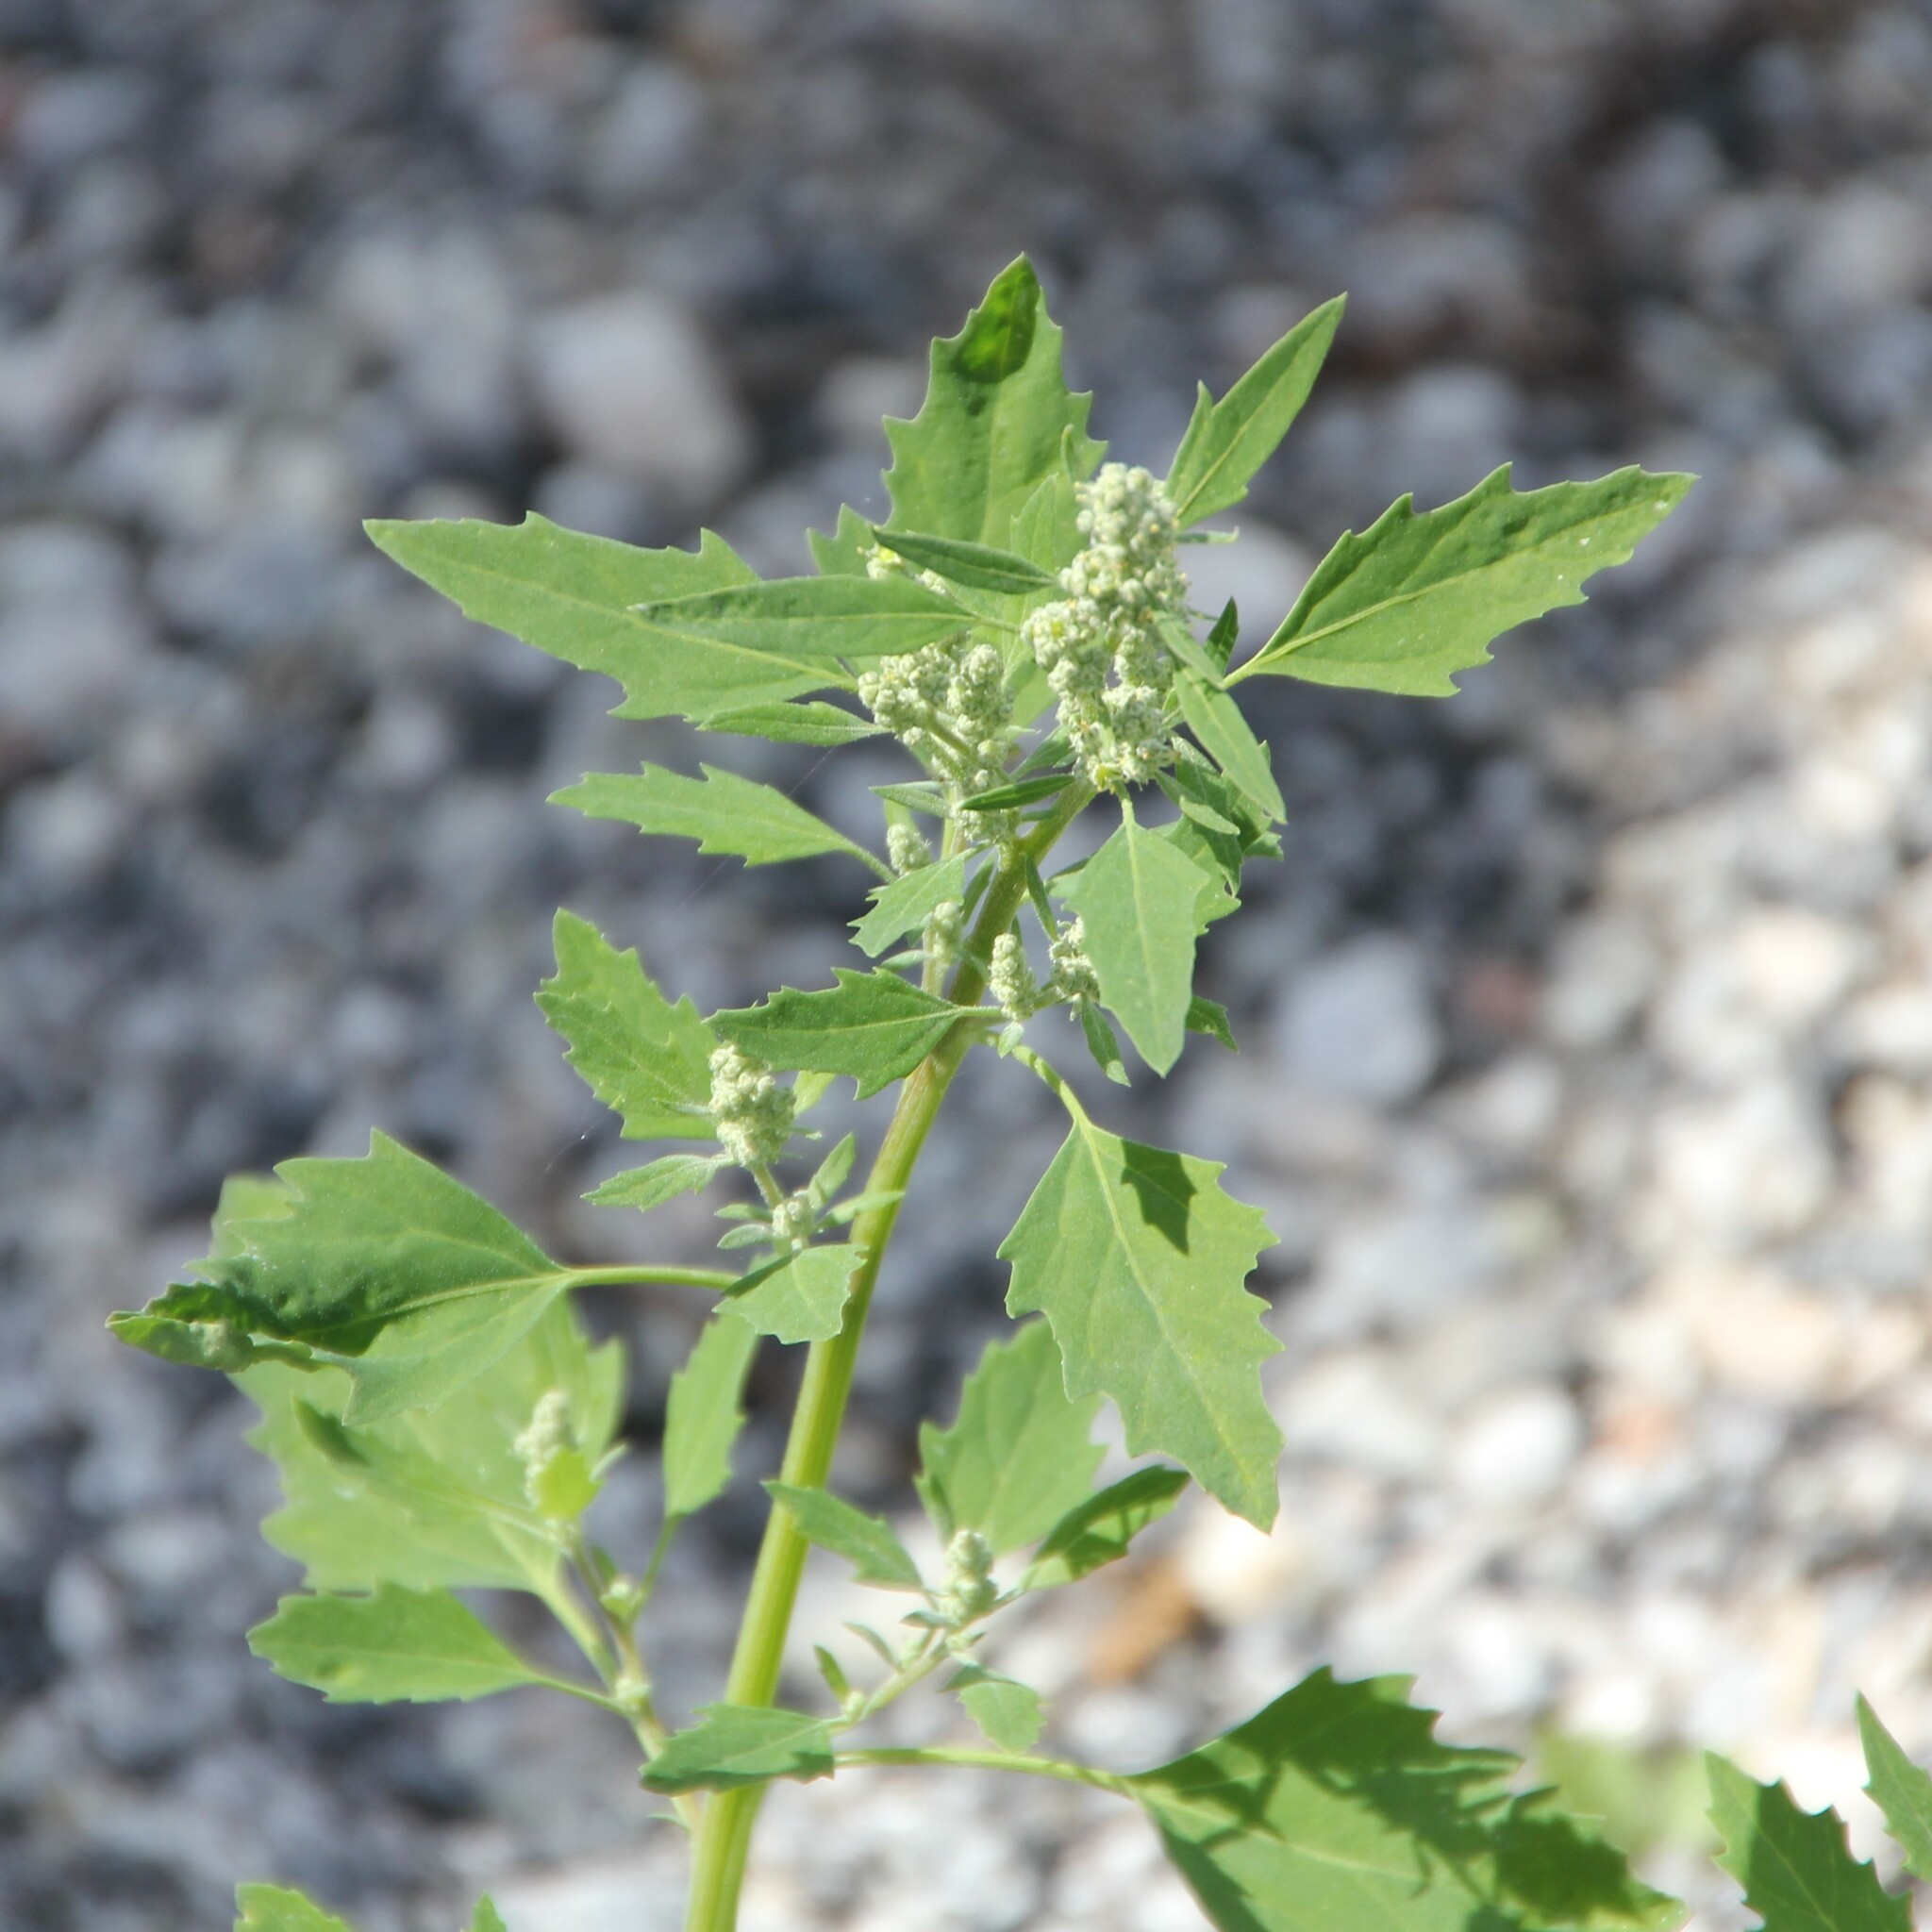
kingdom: Plantae
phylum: Tracheophyta
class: Magnoliopsida
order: Caryophyllales
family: Amaranthaceae
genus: Chenopodium
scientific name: Chenopodium album
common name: Fat-hen
